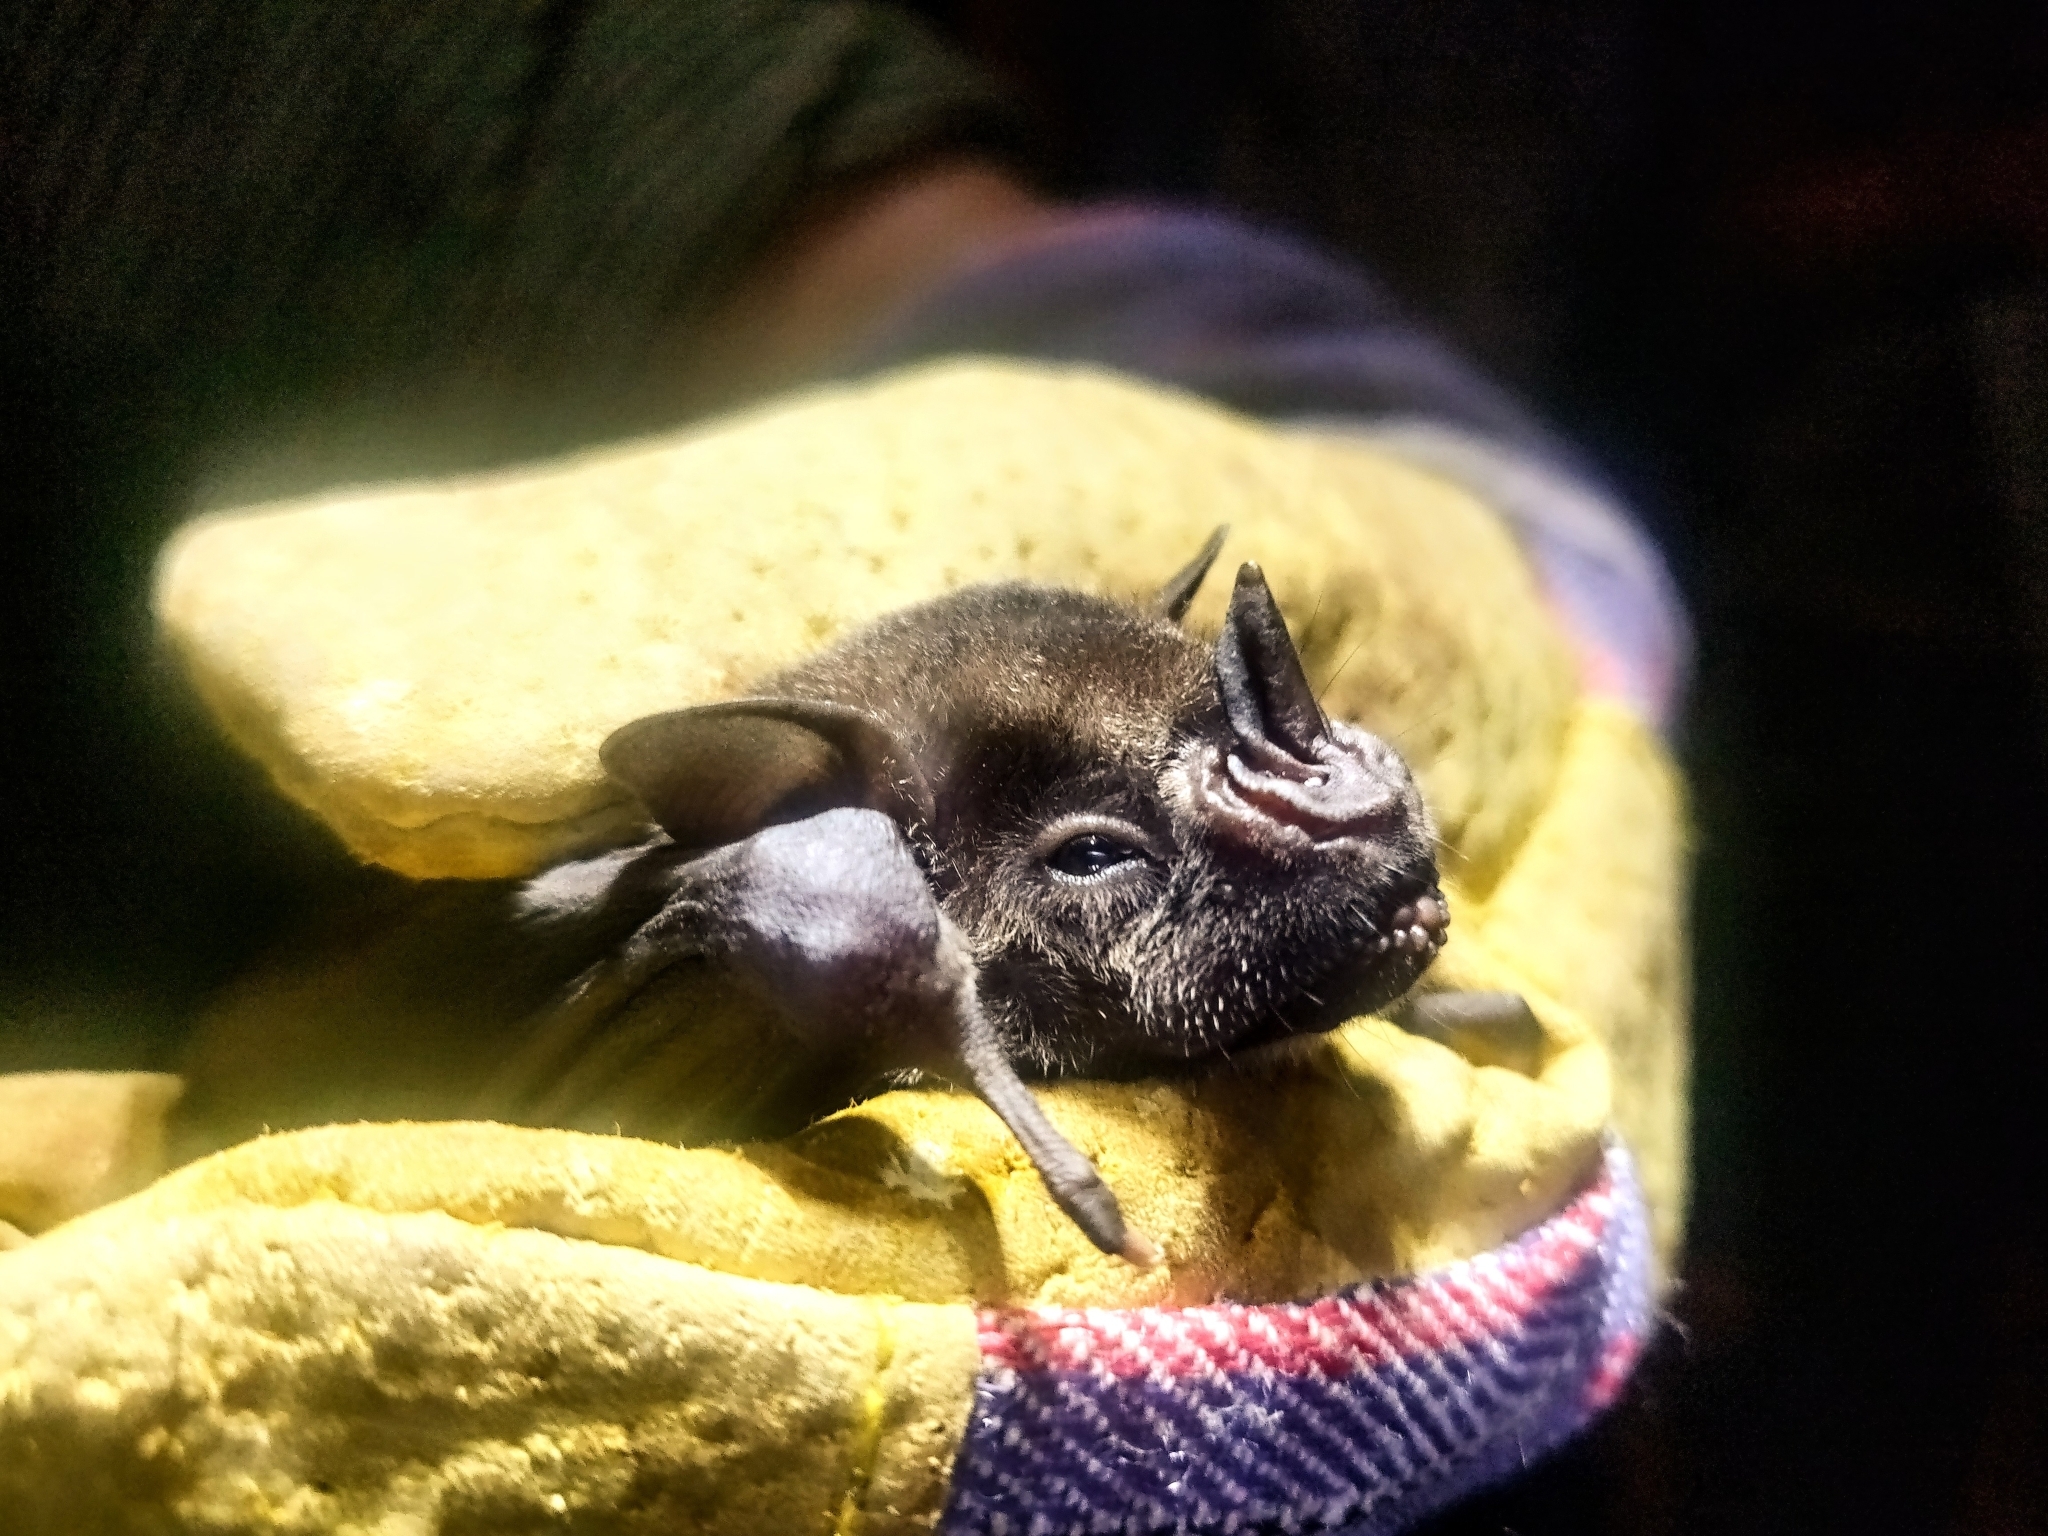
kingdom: Animalia
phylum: Chordata
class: Mammalia
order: Chiroptera
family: Phyllostomidae
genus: Artibeus
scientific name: Artibeus jamaicensis
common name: Jamaican fruit-eating bat
